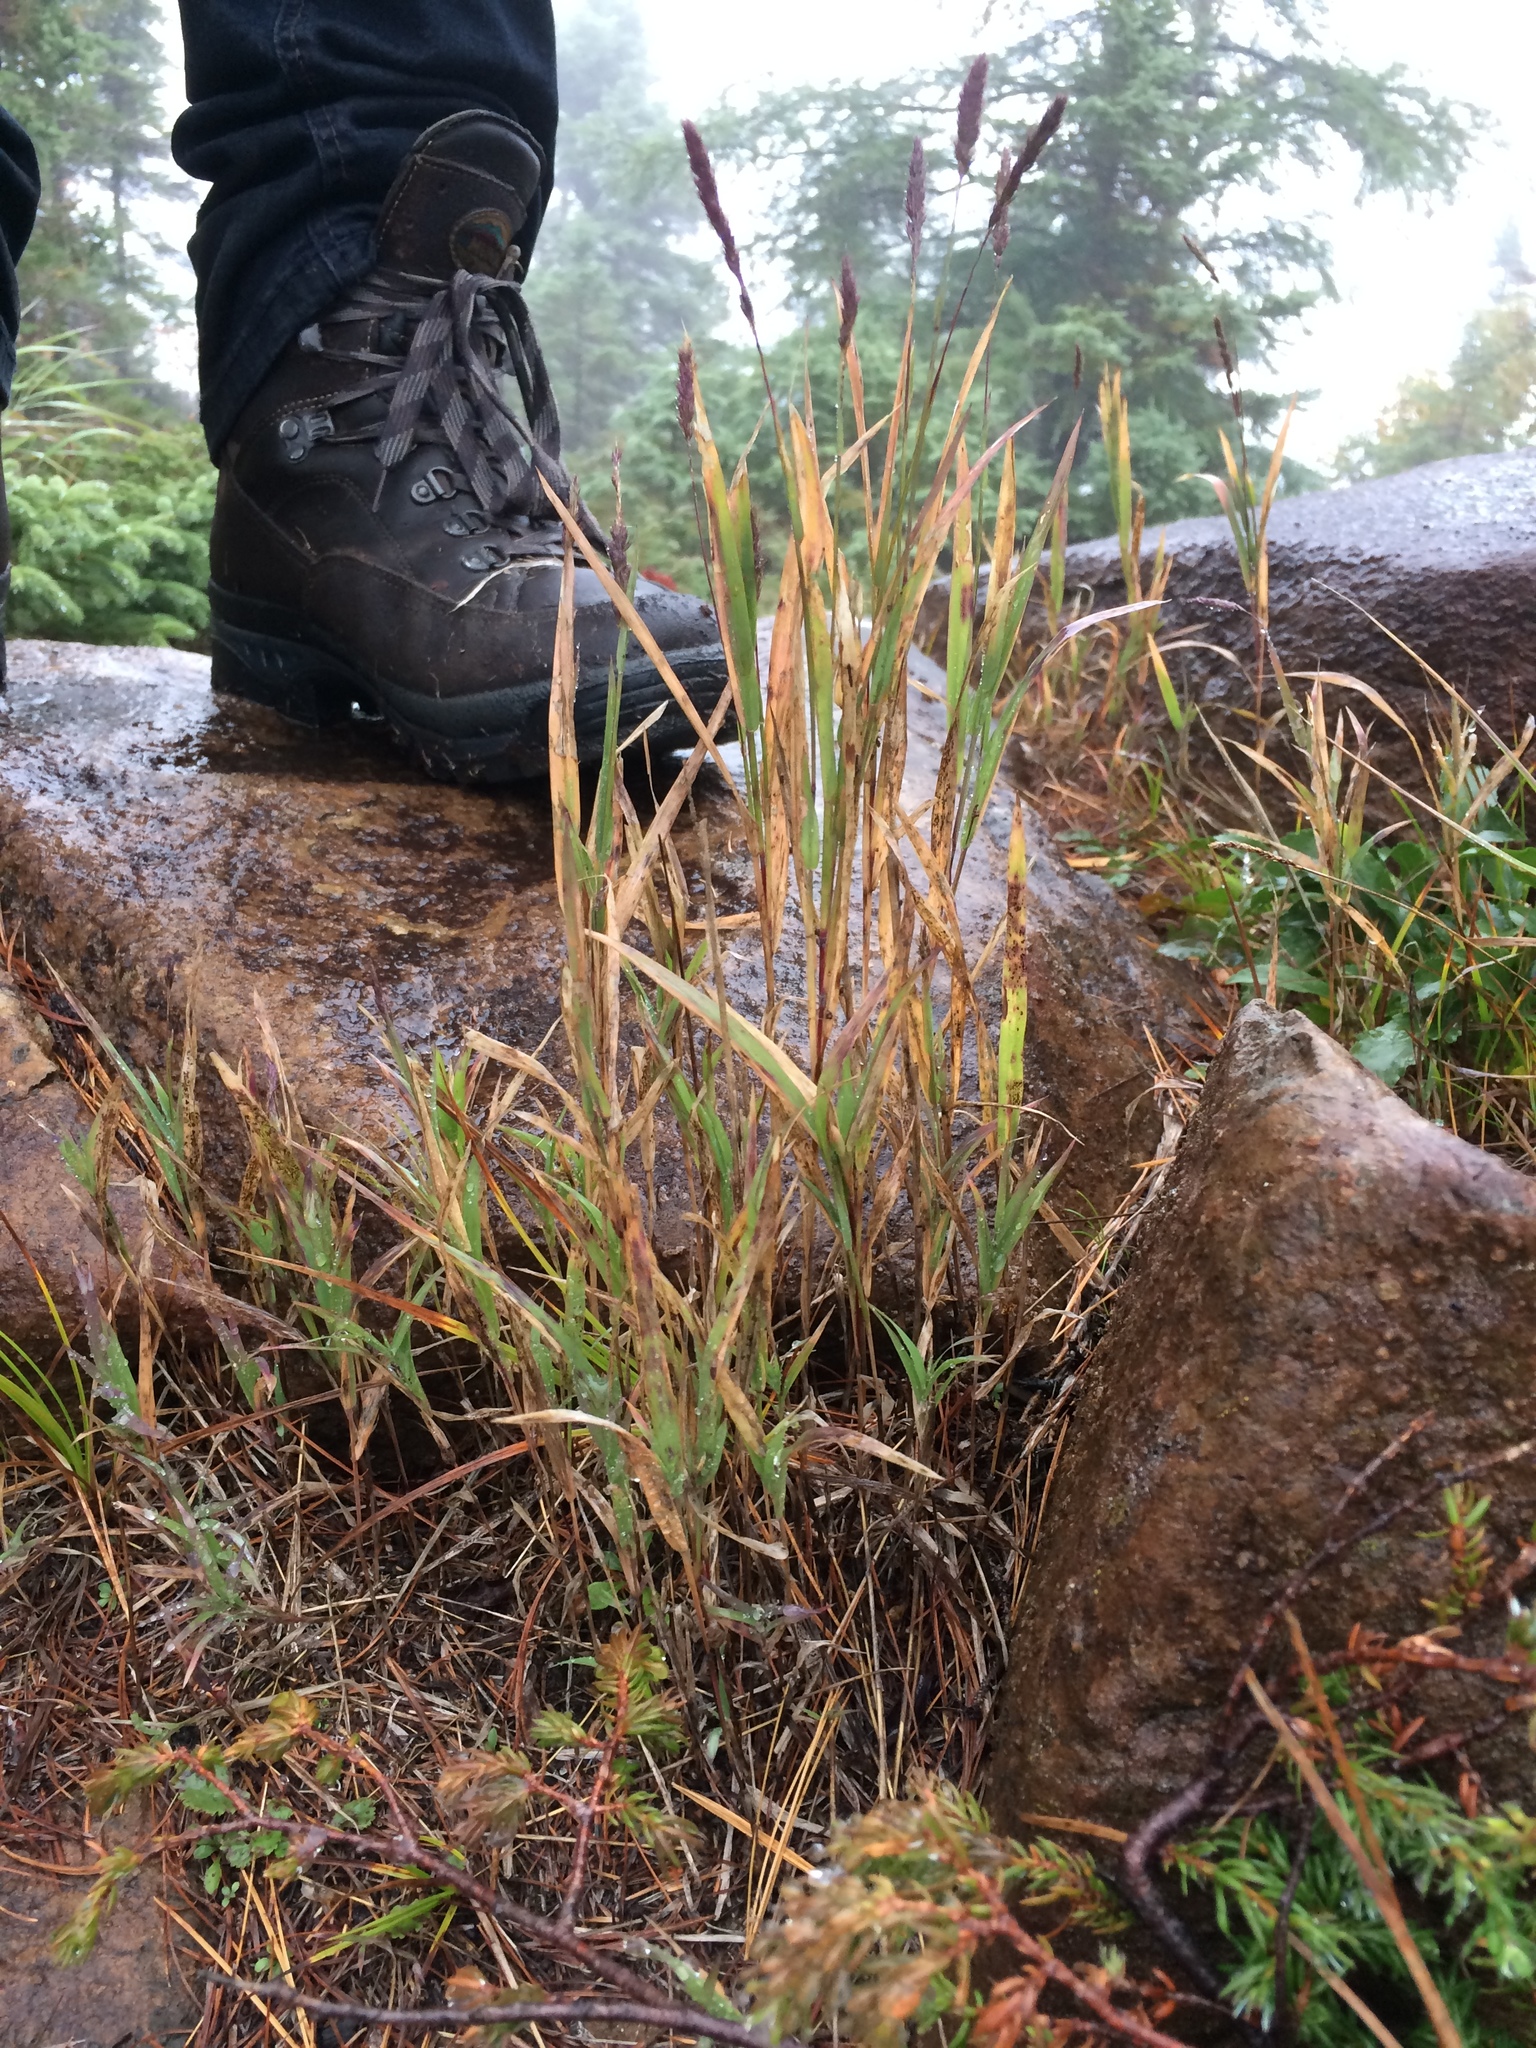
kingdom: Plantae
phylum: Tracheophyta
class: Liliopsida
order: Poales
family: Poaceae
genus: Muhlenbergia
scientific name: Muhlenbergia glomerata
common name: Bog muhly
